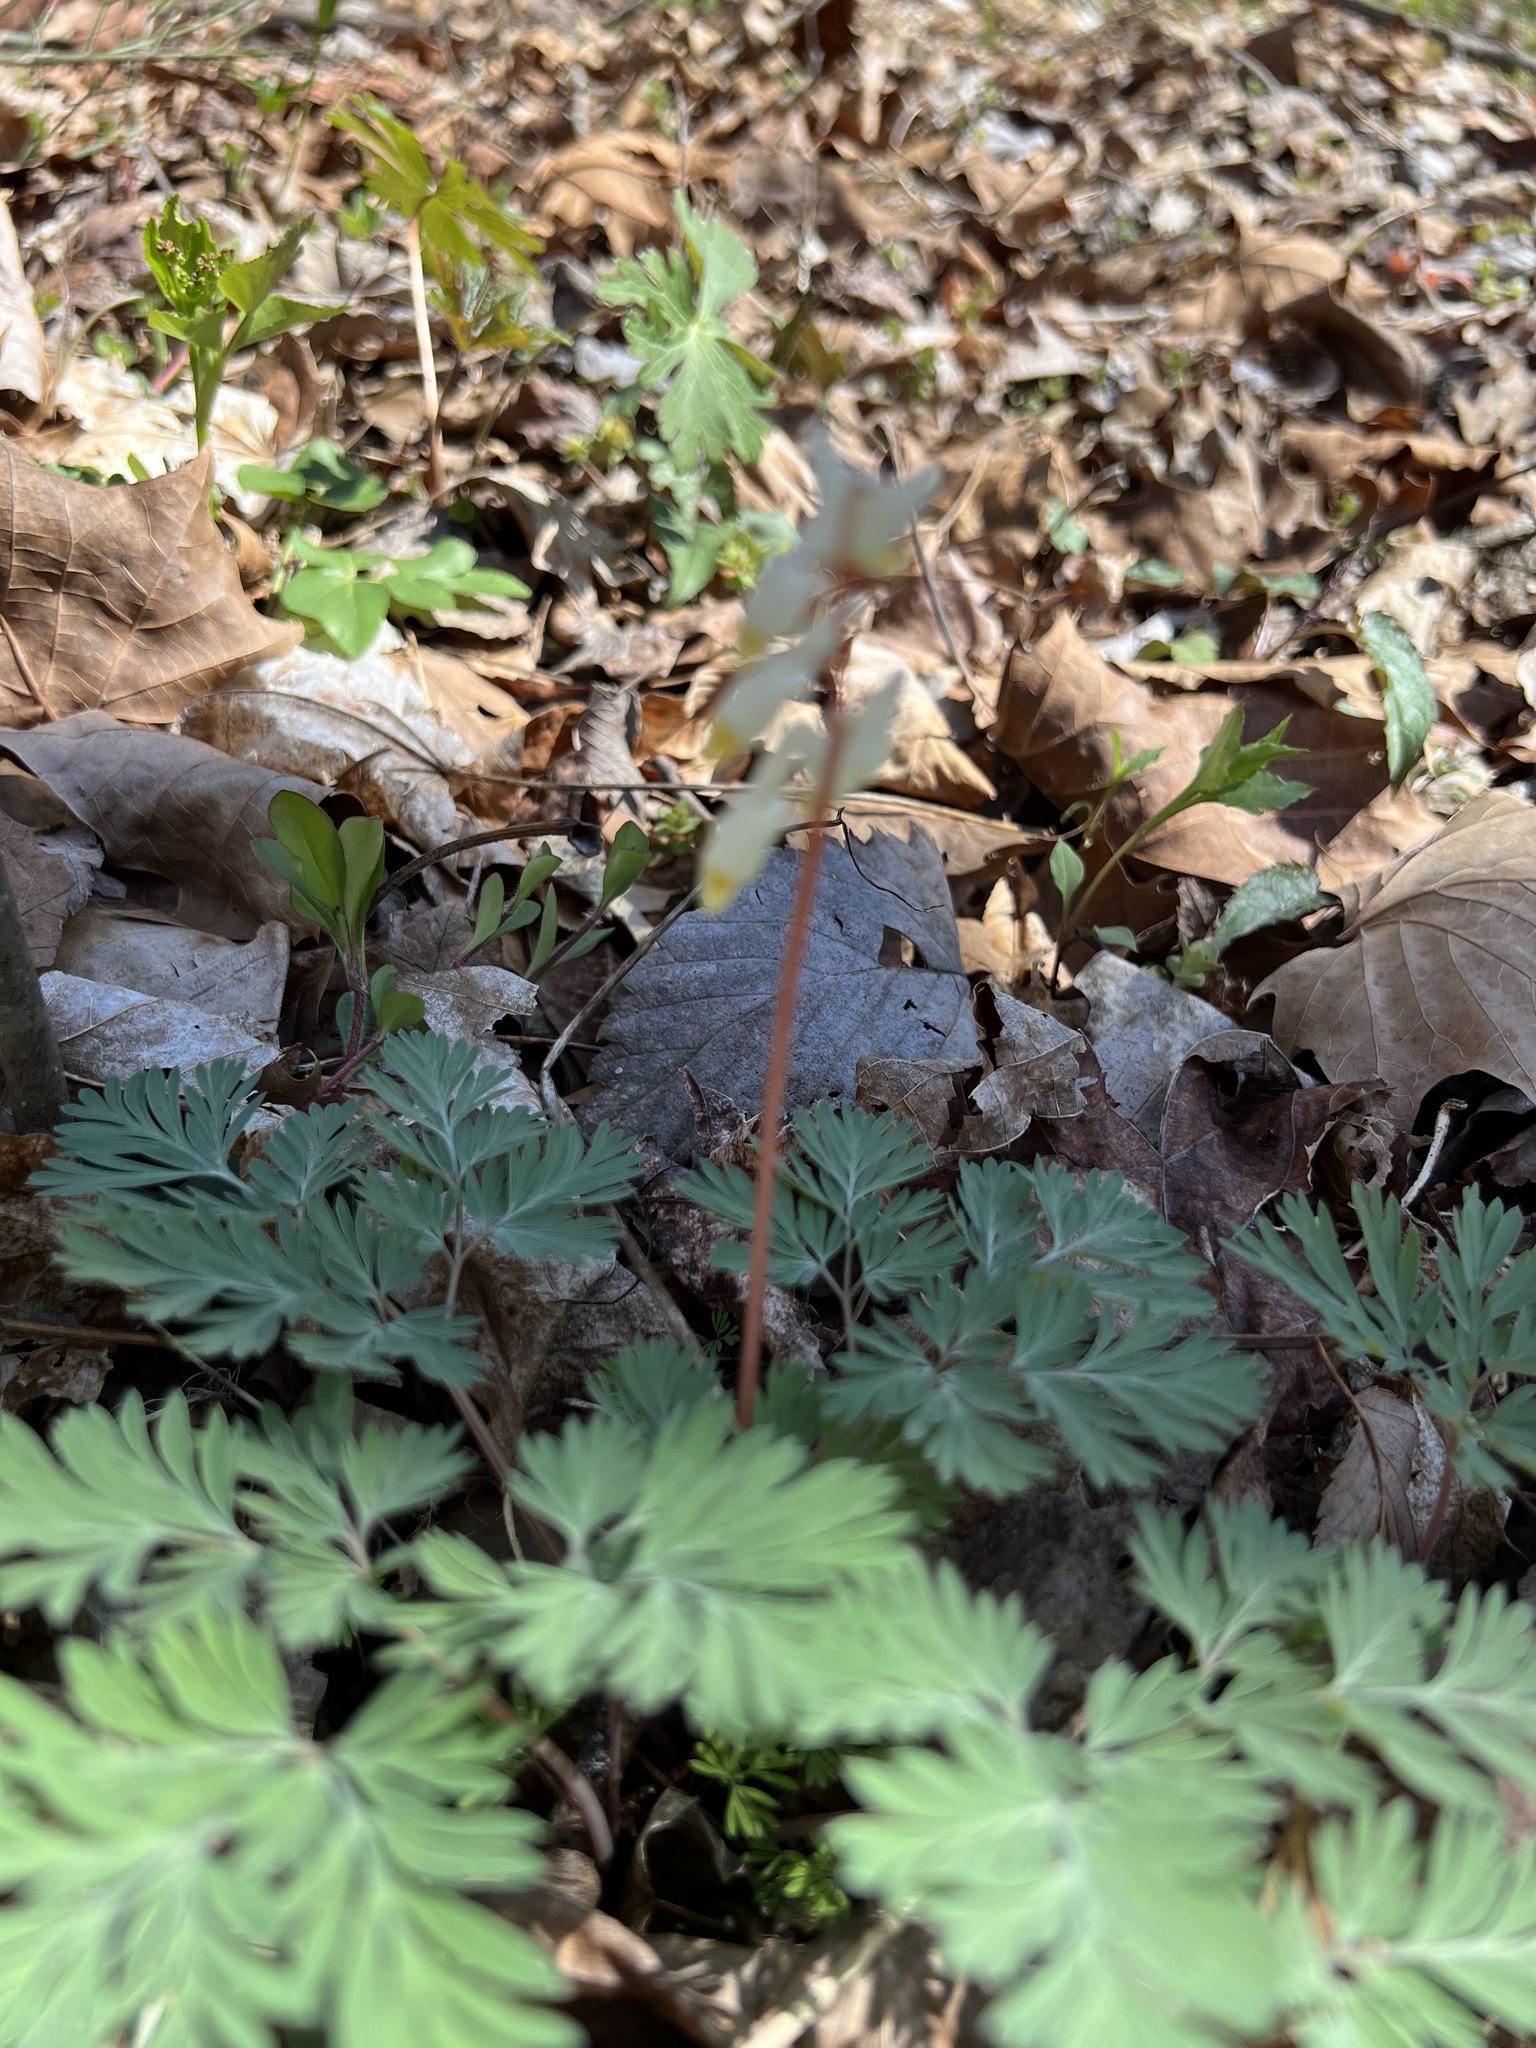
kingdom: Plantae
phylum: Tracheophyta
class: Magnoliopsida
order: Ranunculales
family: Papaveraceae
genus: Dicentra
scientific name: Dicentra cucullaria
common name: Dutchman's breeches
